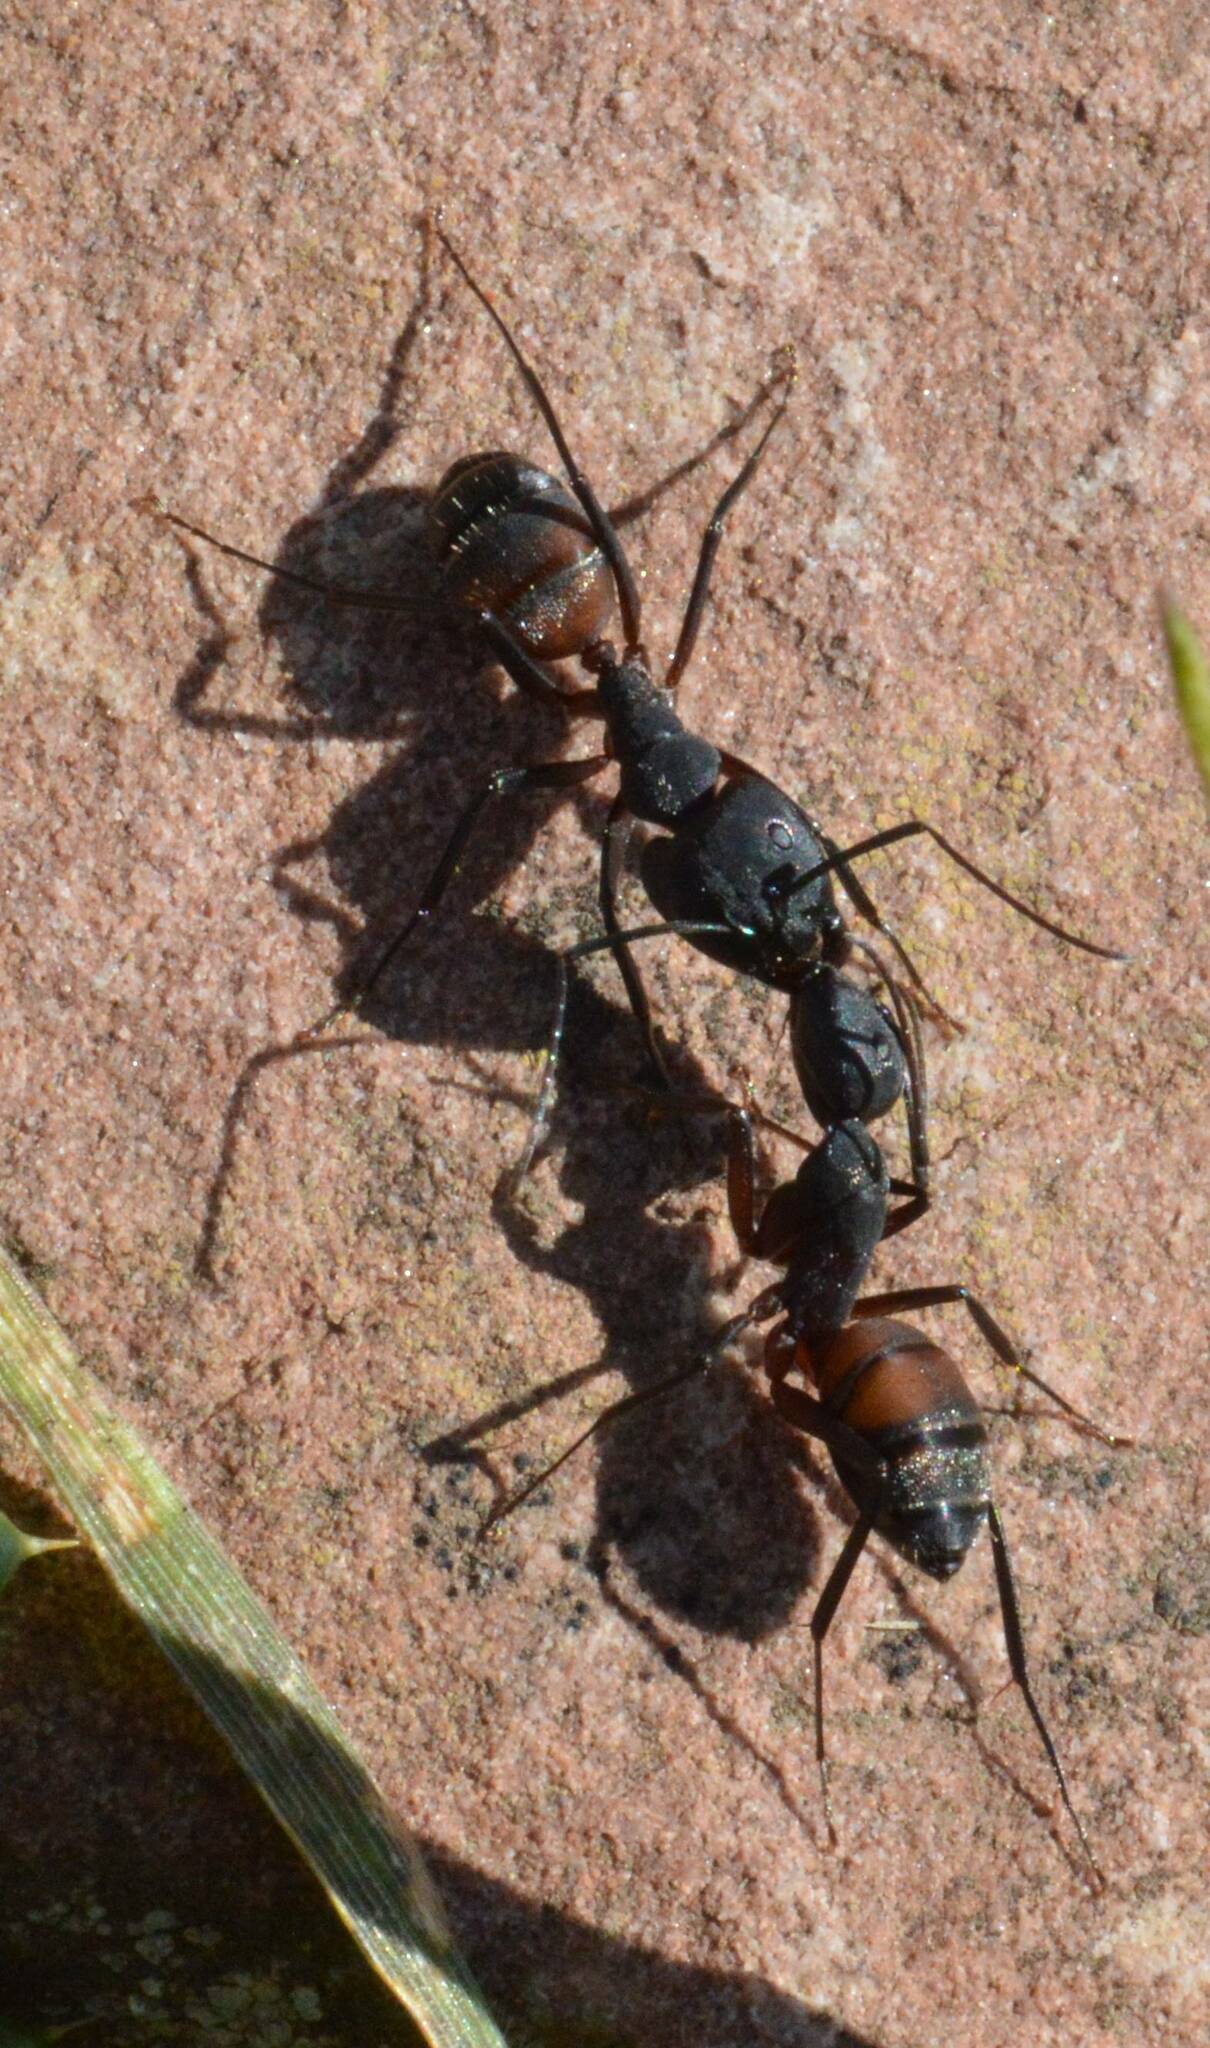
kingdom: Animalia
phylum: Arthropoda
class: Insecta
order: Hymenoptera
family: Formicidae
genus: Camponotus
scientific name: Camponotus cruentatus
